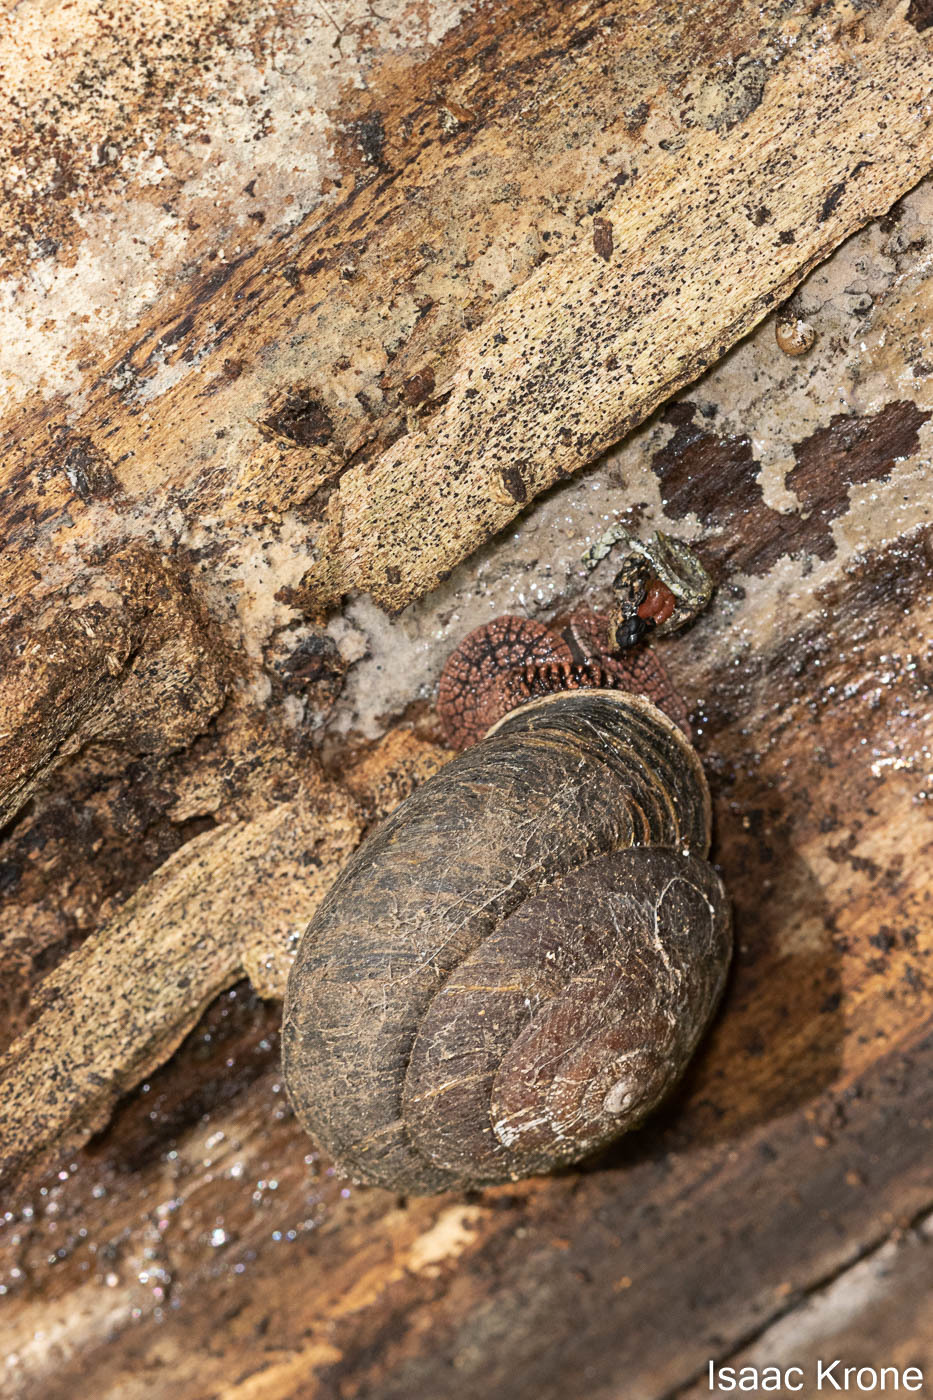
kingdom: Animalia
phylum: Mollusca
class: Gastropoda
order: Stylommatophora
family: Xanthonychidae
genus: Monadenia
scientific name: Monadenia infumata
